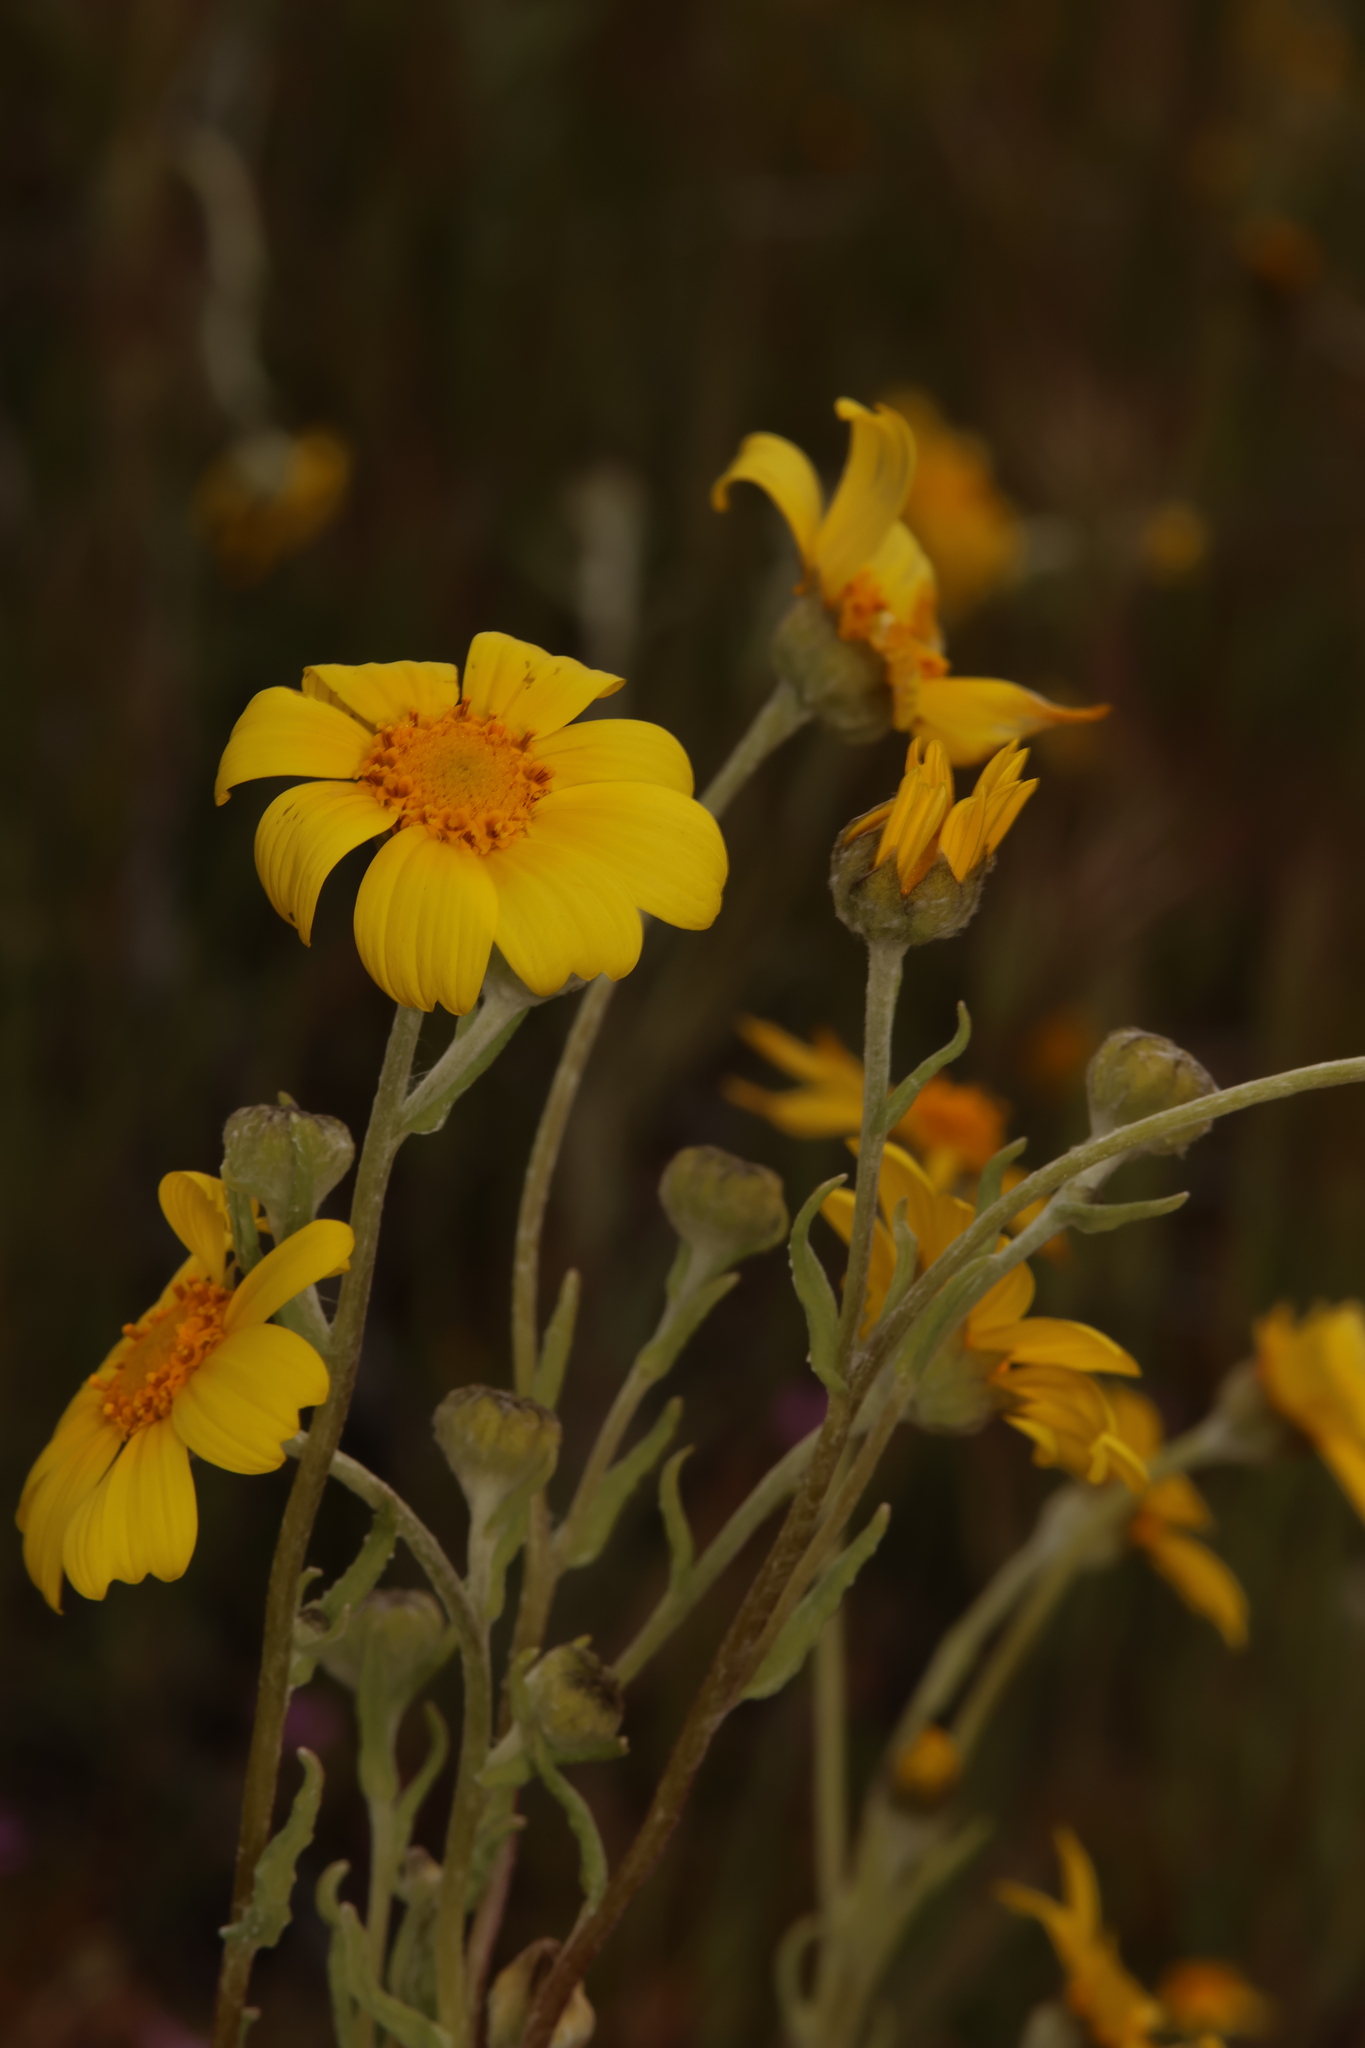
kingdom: Plantae
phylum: Tracheophyta
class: Magnoliopsida
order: Asterales
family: Asteraceae
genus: Monolopia
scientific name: Monolopia lanceolata
